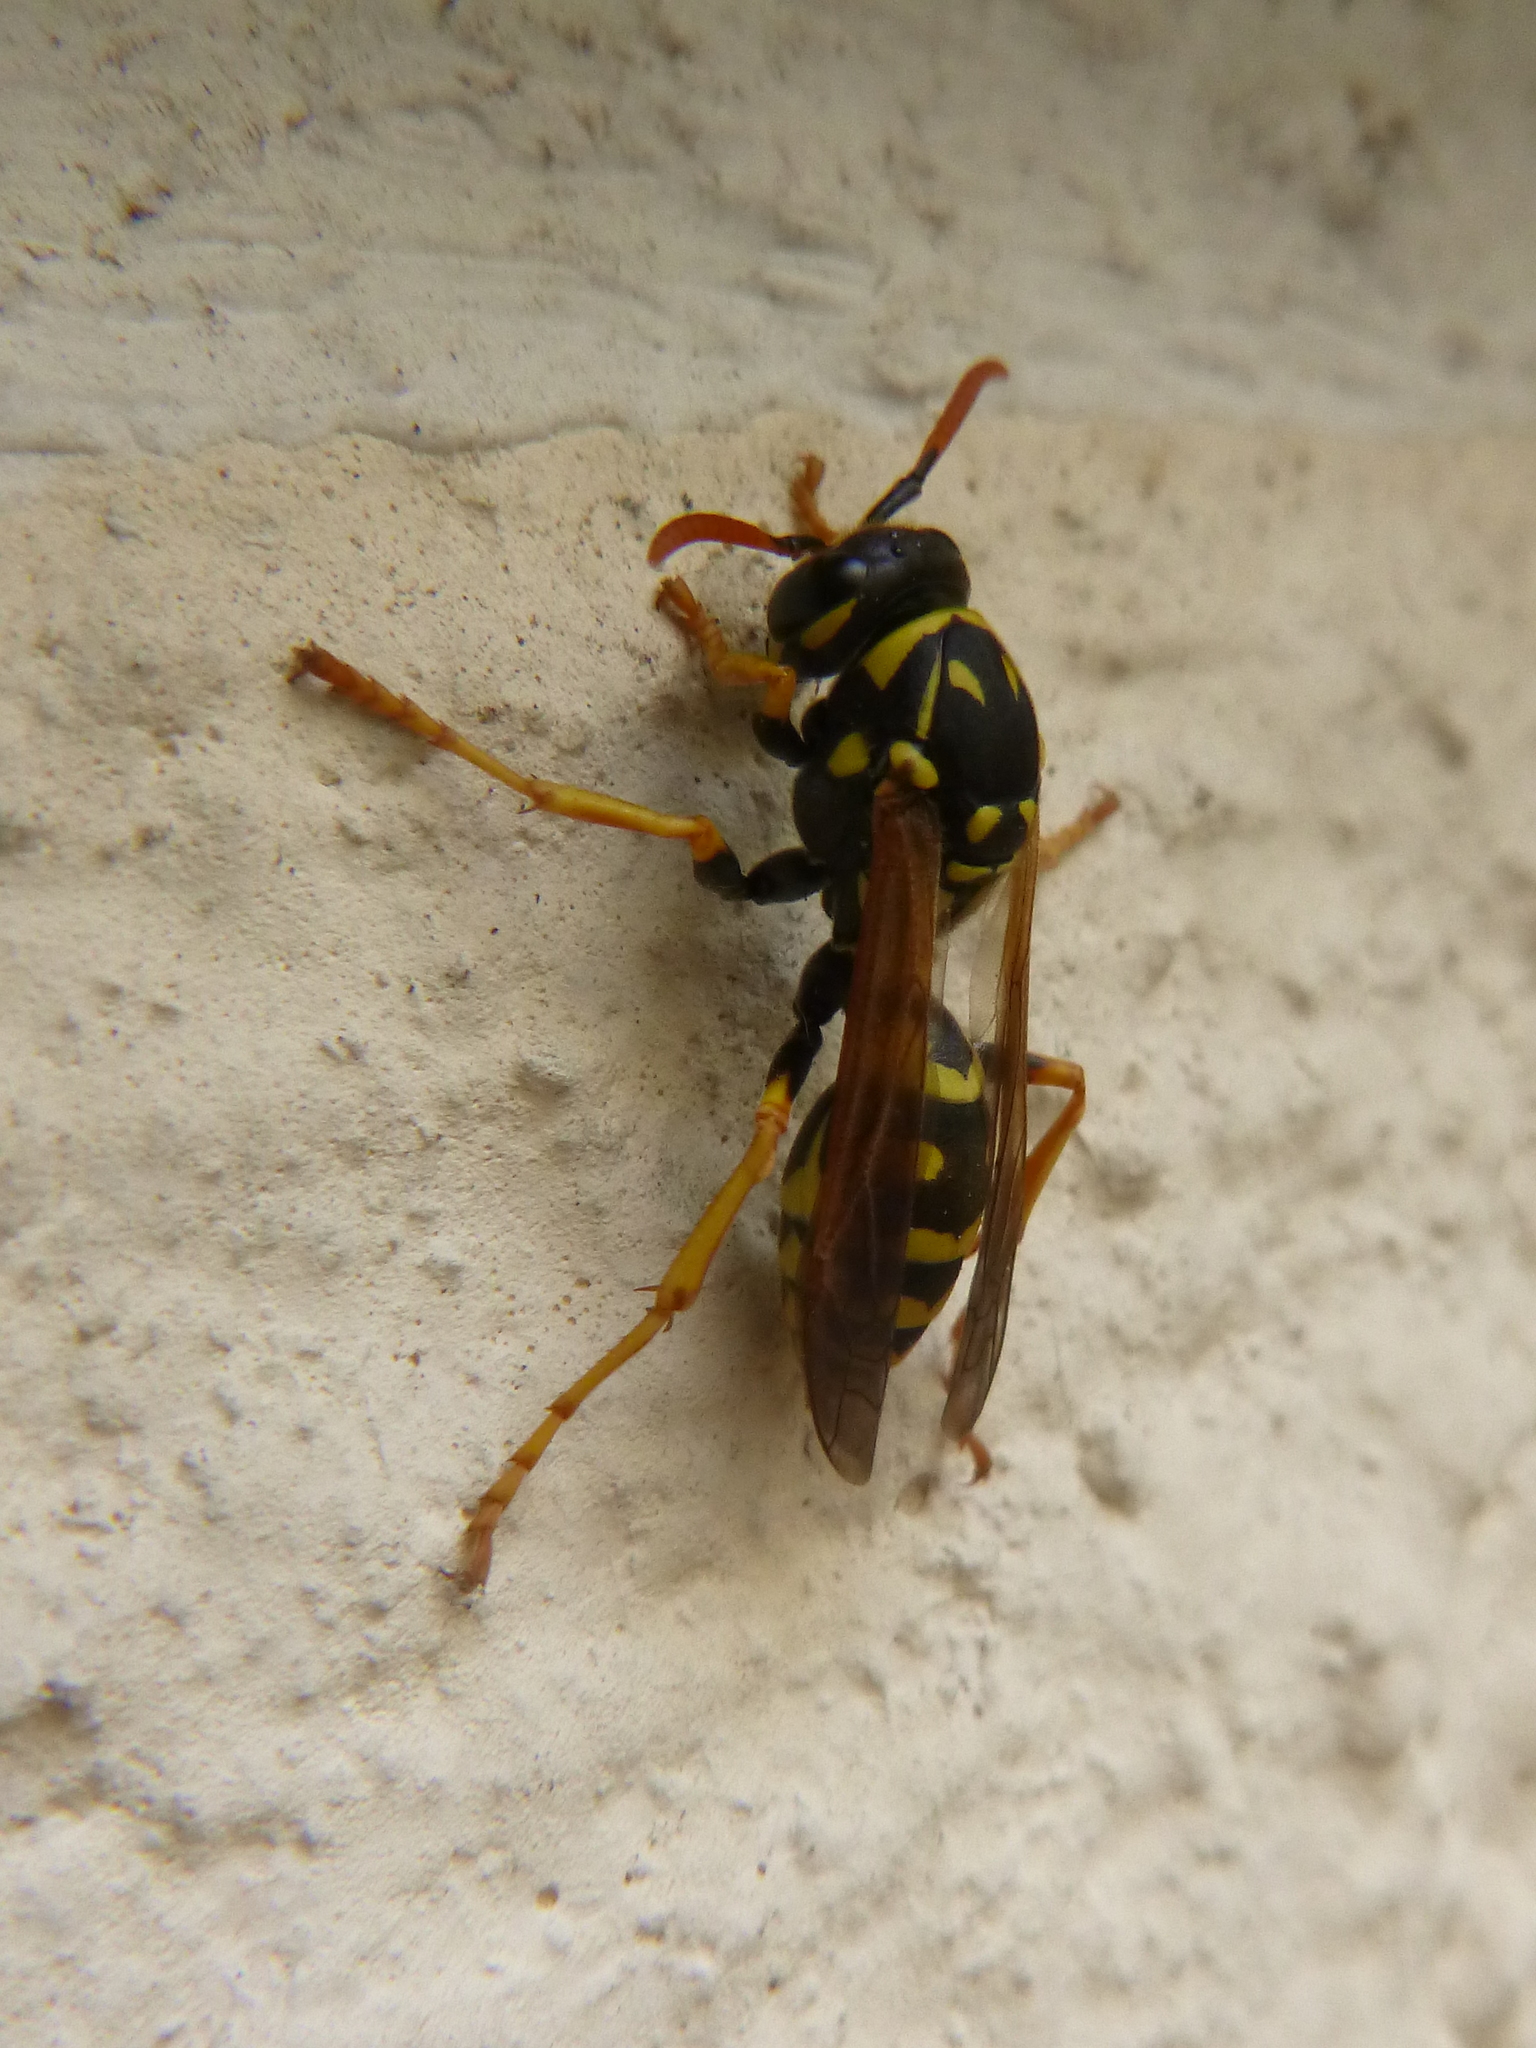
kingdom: Animalia
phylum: Arthropoda
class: Insecta
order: Hymenoptera
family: Eumenidae
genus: Polistes
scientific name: Polistes dominula
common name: Paper wasp
